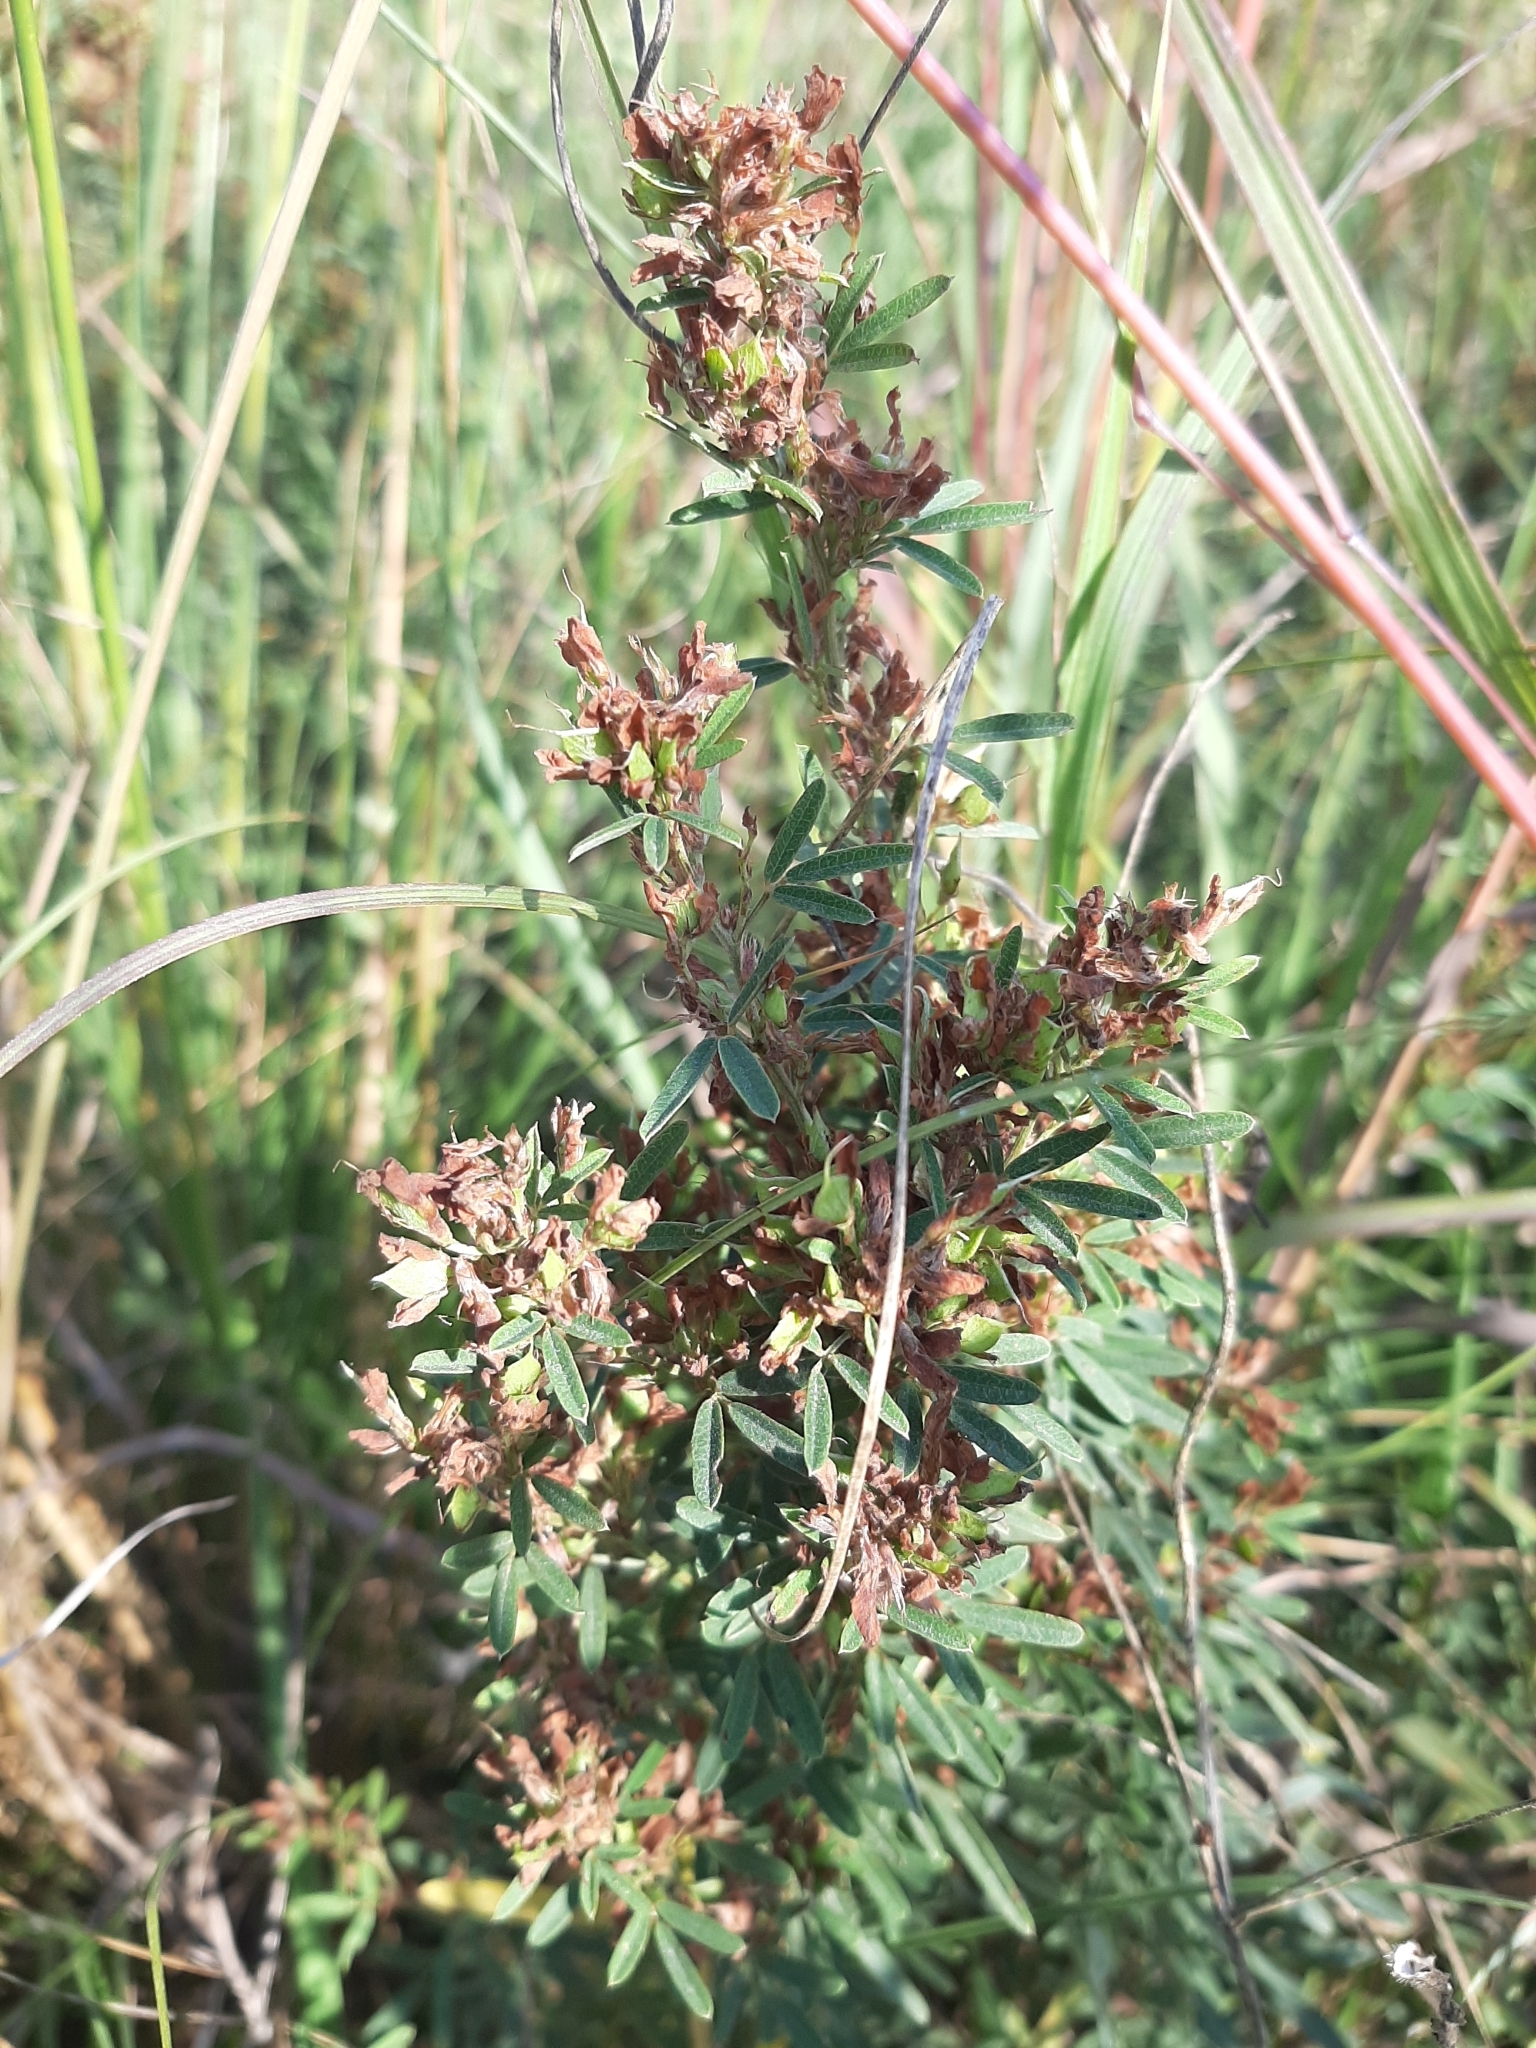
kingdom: Plantae
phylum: Tracheophyta
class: Magnoliopsida
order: Fabales
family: Fabaceae
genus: Lespedeza
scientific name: Lespedeza virginica
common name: Slender bush-clover
